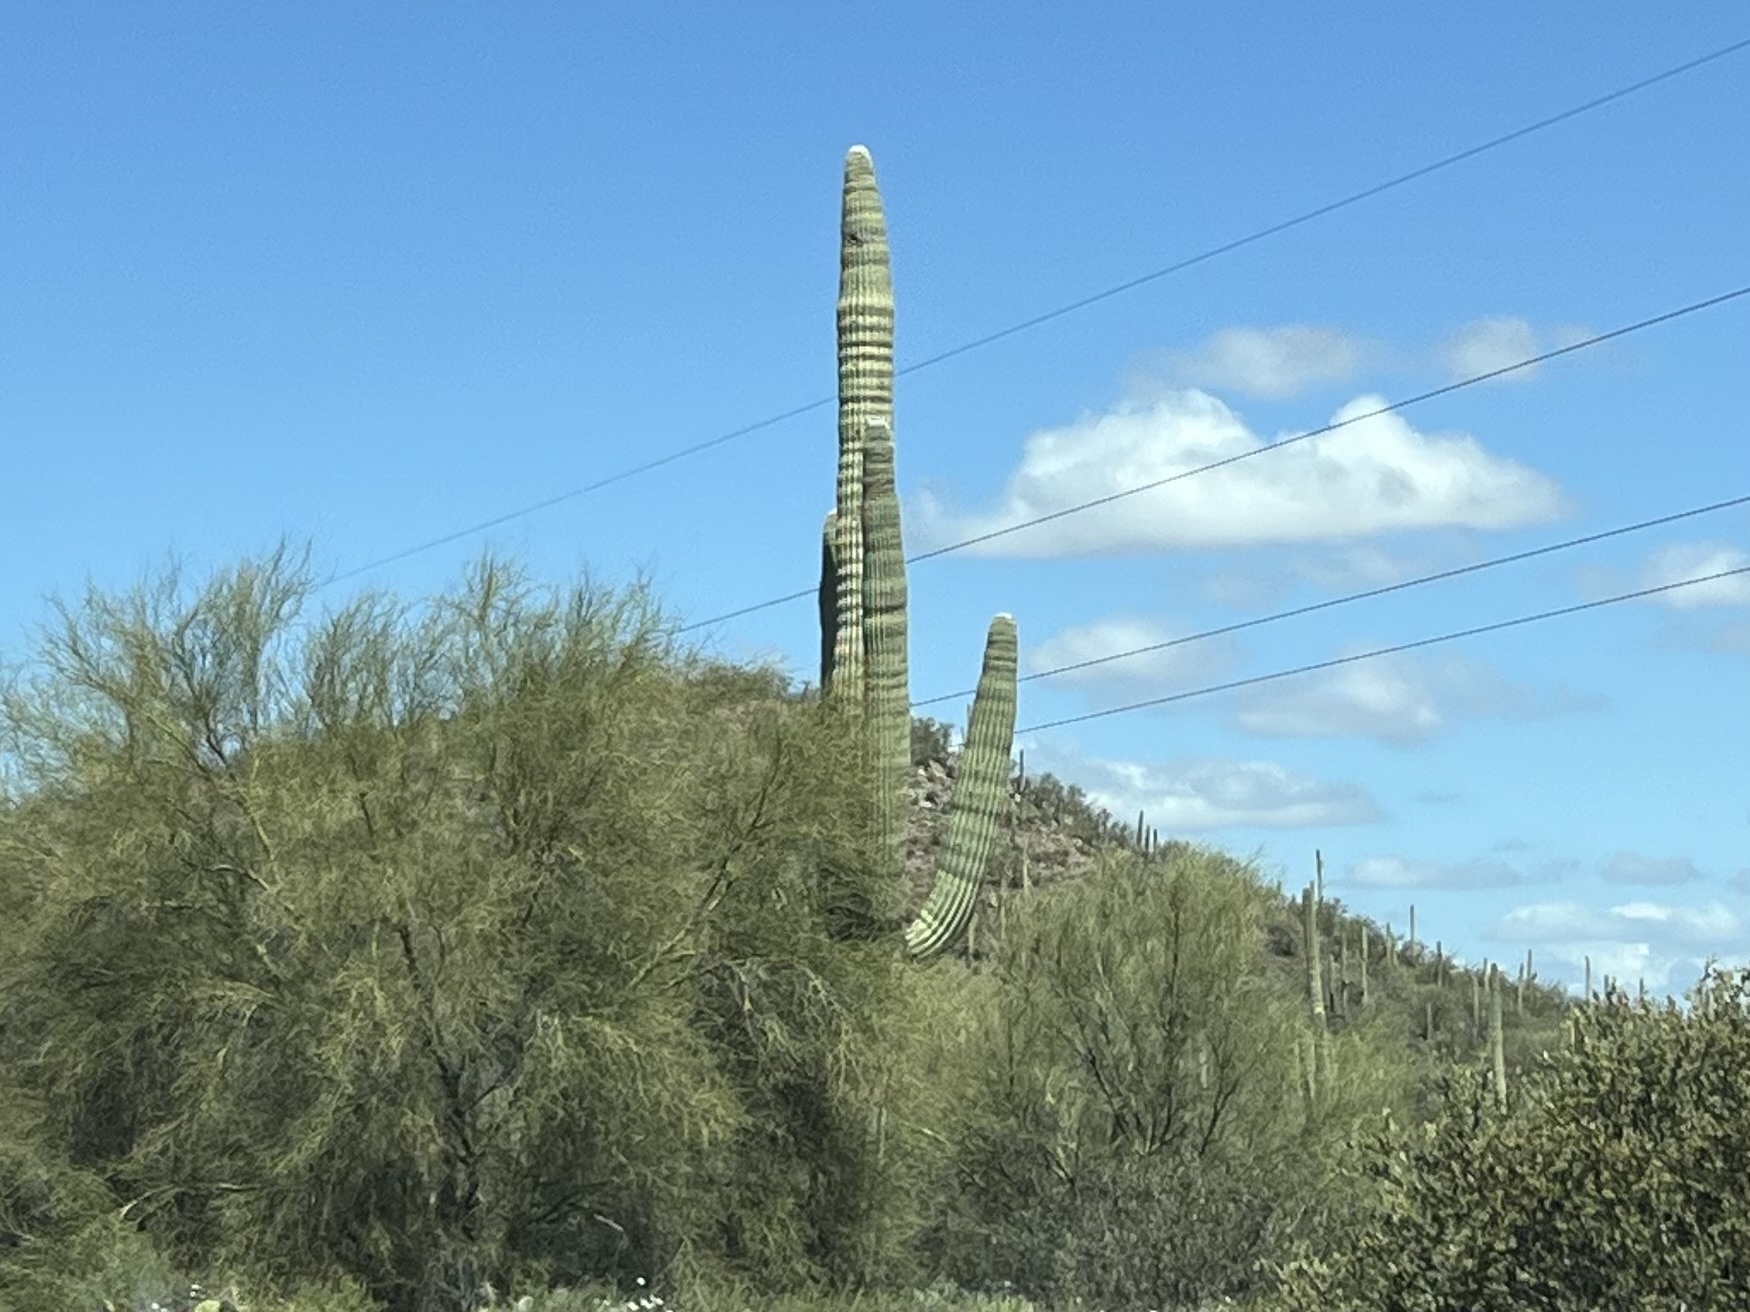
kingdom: Plantae
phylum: Tracheophyta
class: Magnoliopsida
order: Caryophyllales
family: Cactaceae
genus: Carnegiea
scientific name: Carnegiea gigantea
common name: Saguaro
